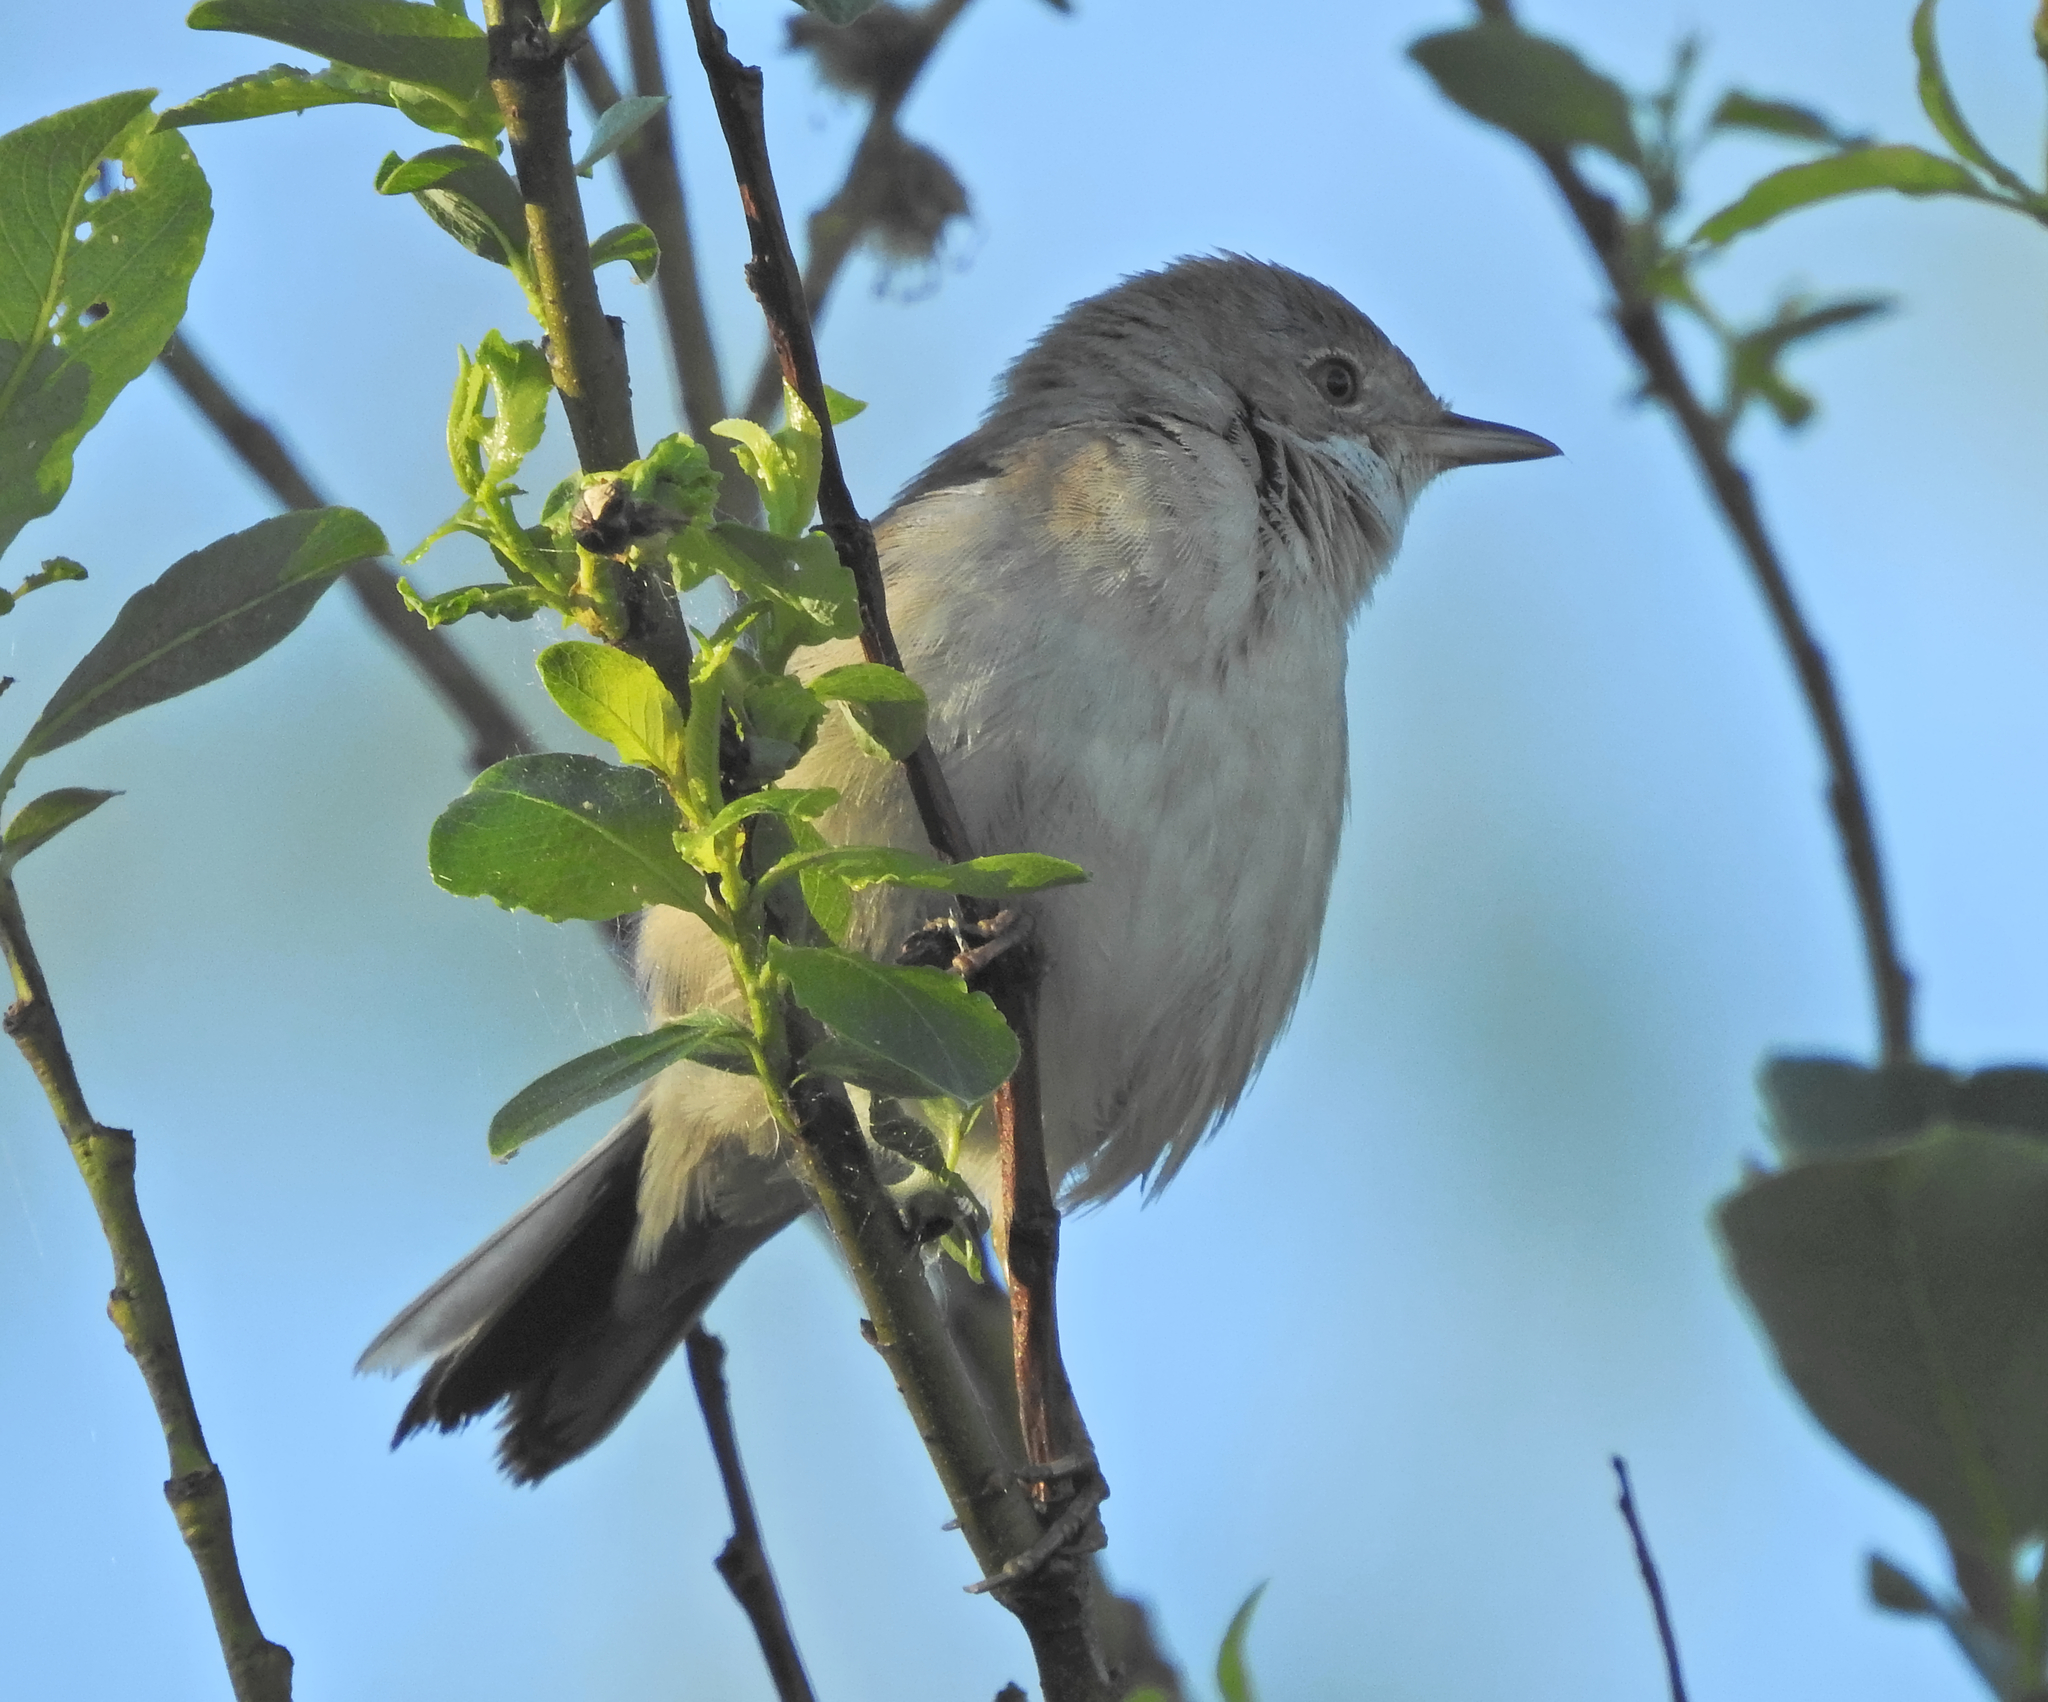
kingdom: Animalia
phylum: Chordata
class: Aves
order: Passeriformes
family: Sylviidae
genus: Sylvia
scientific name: Sylvia communis
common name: Common whitethroat
